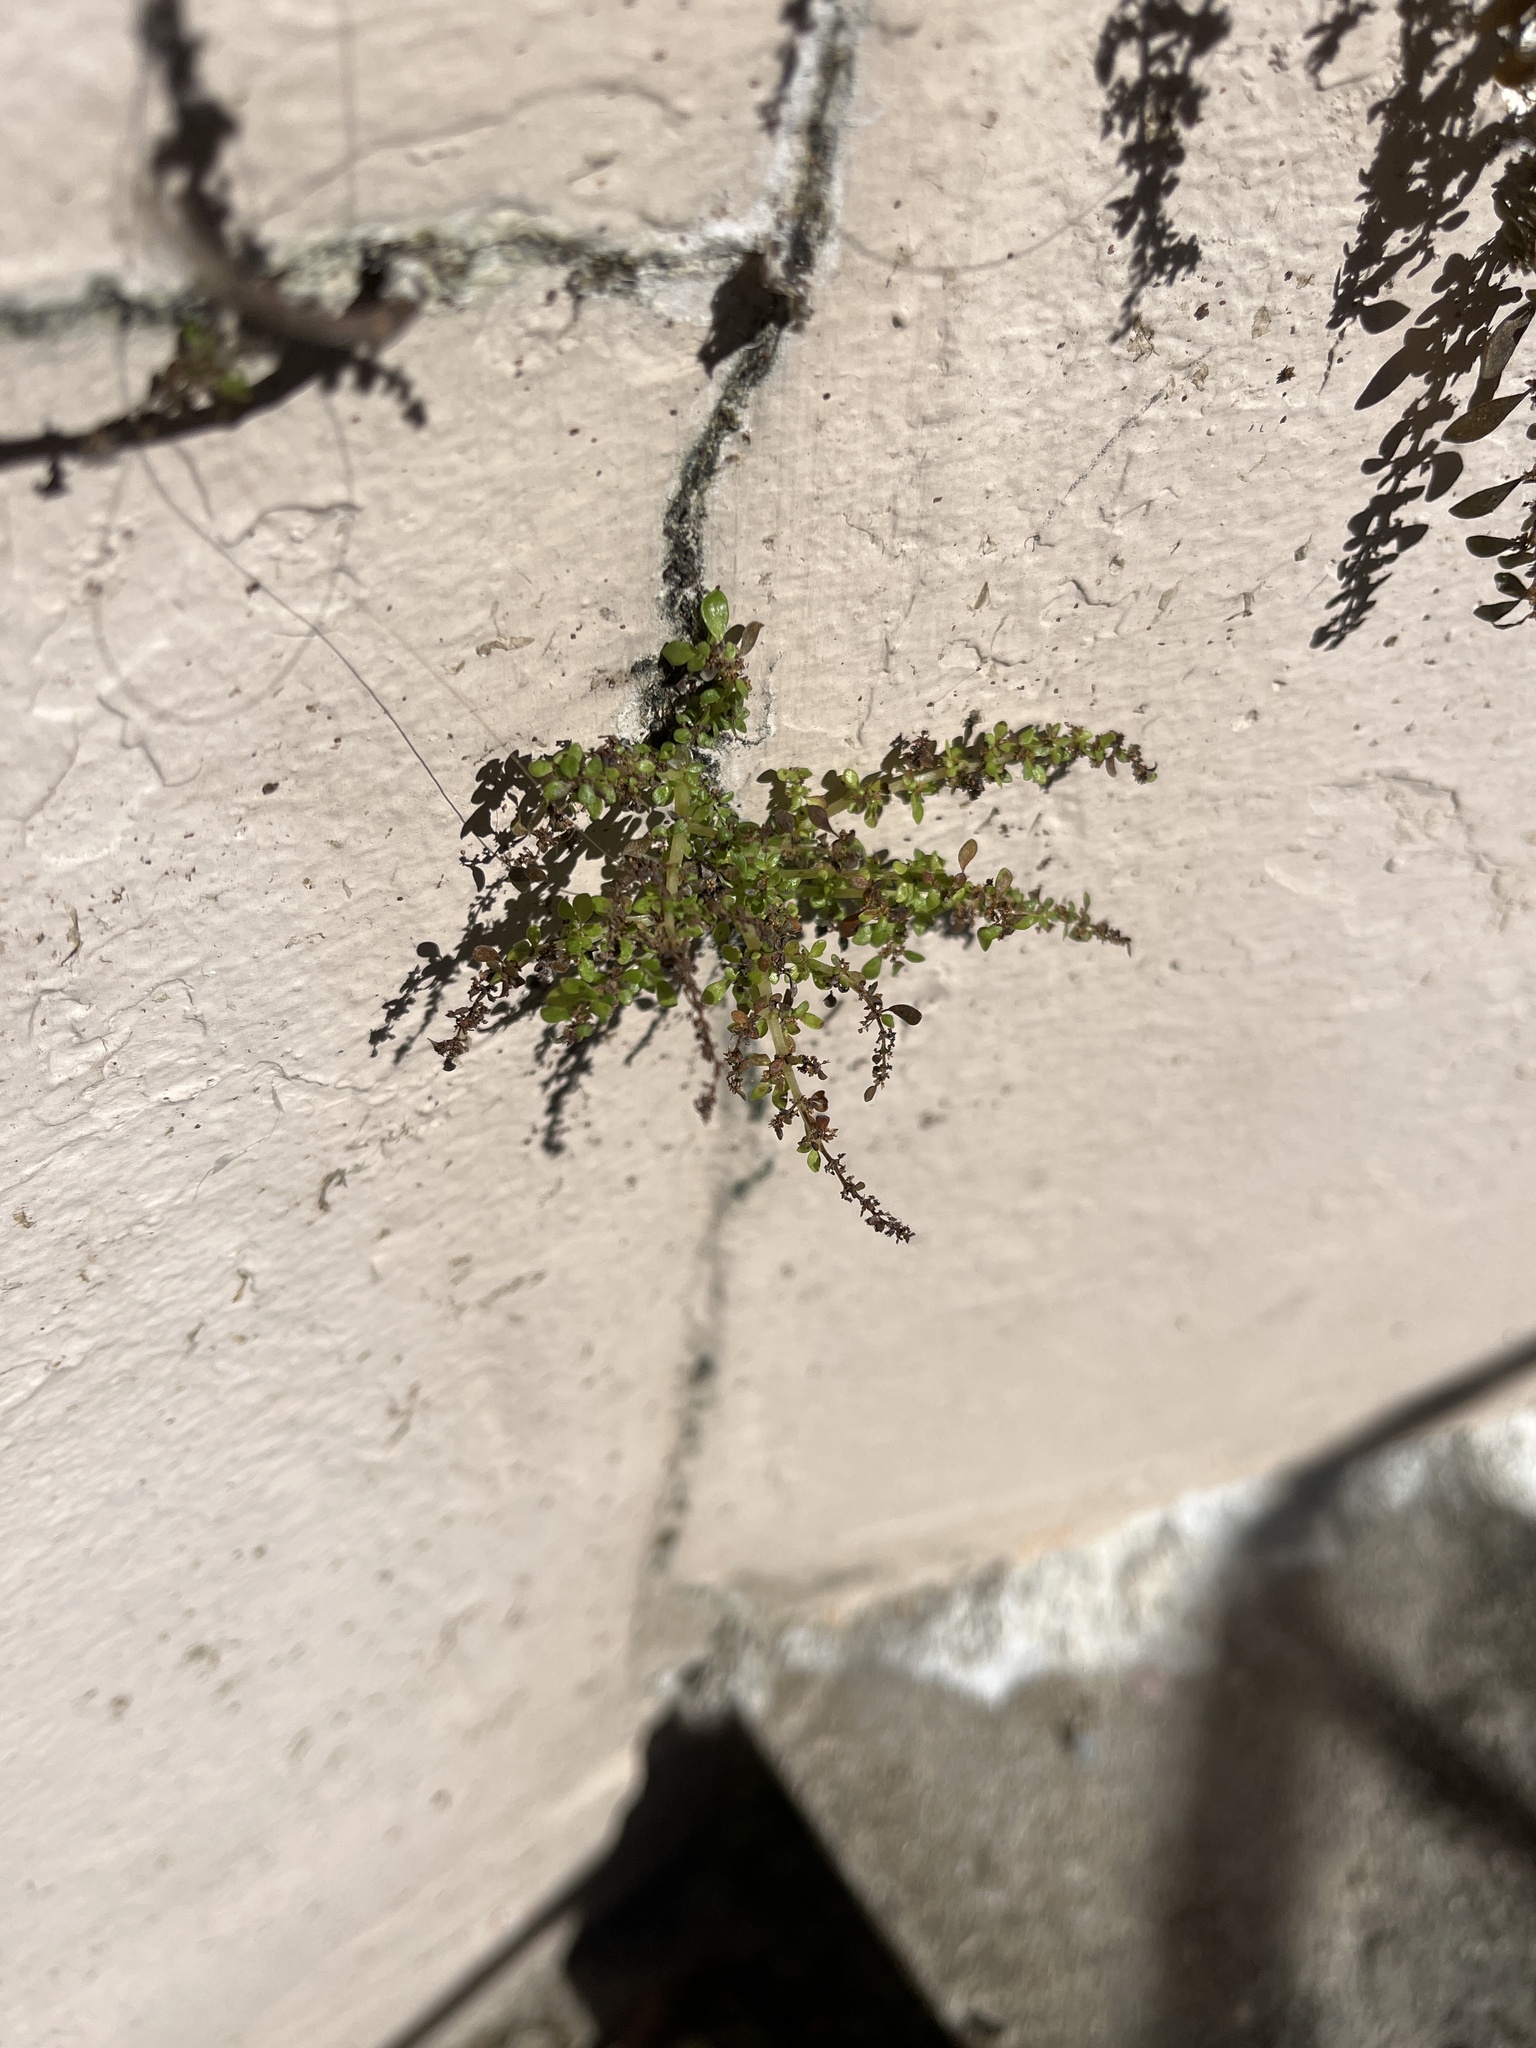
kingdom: Plantae
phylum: Tracheophyta
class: Magnoliopsida
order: Rosales
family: Urticaceae
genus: Pilea
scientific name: Pilea microphylla
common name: Artillery-plant
